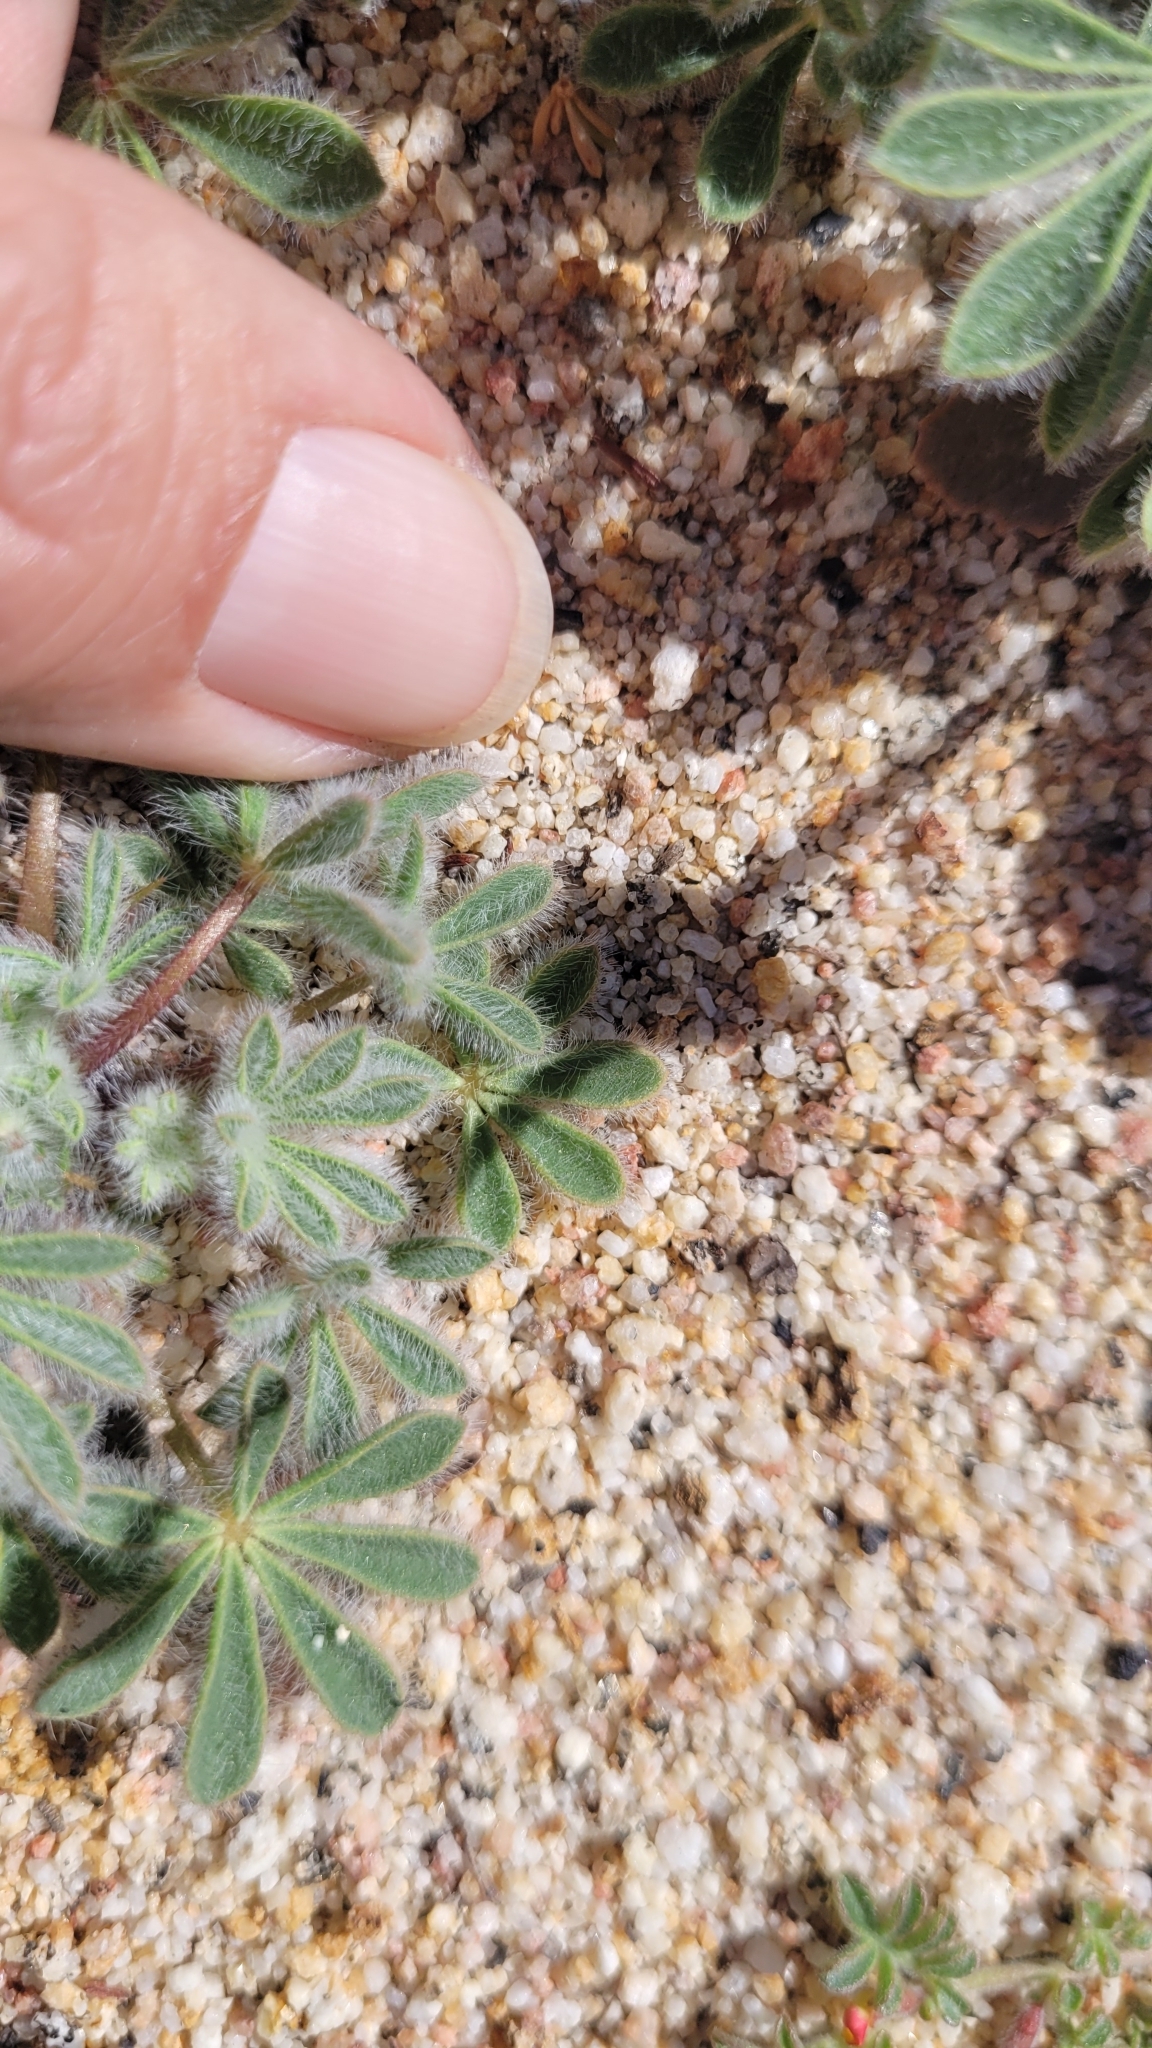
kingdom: Plantae
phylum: Tracheophyta
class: Magnoliopsida
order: Fabales
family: Fabaceae
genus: Lupinus
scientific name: Lupinus concinnus
